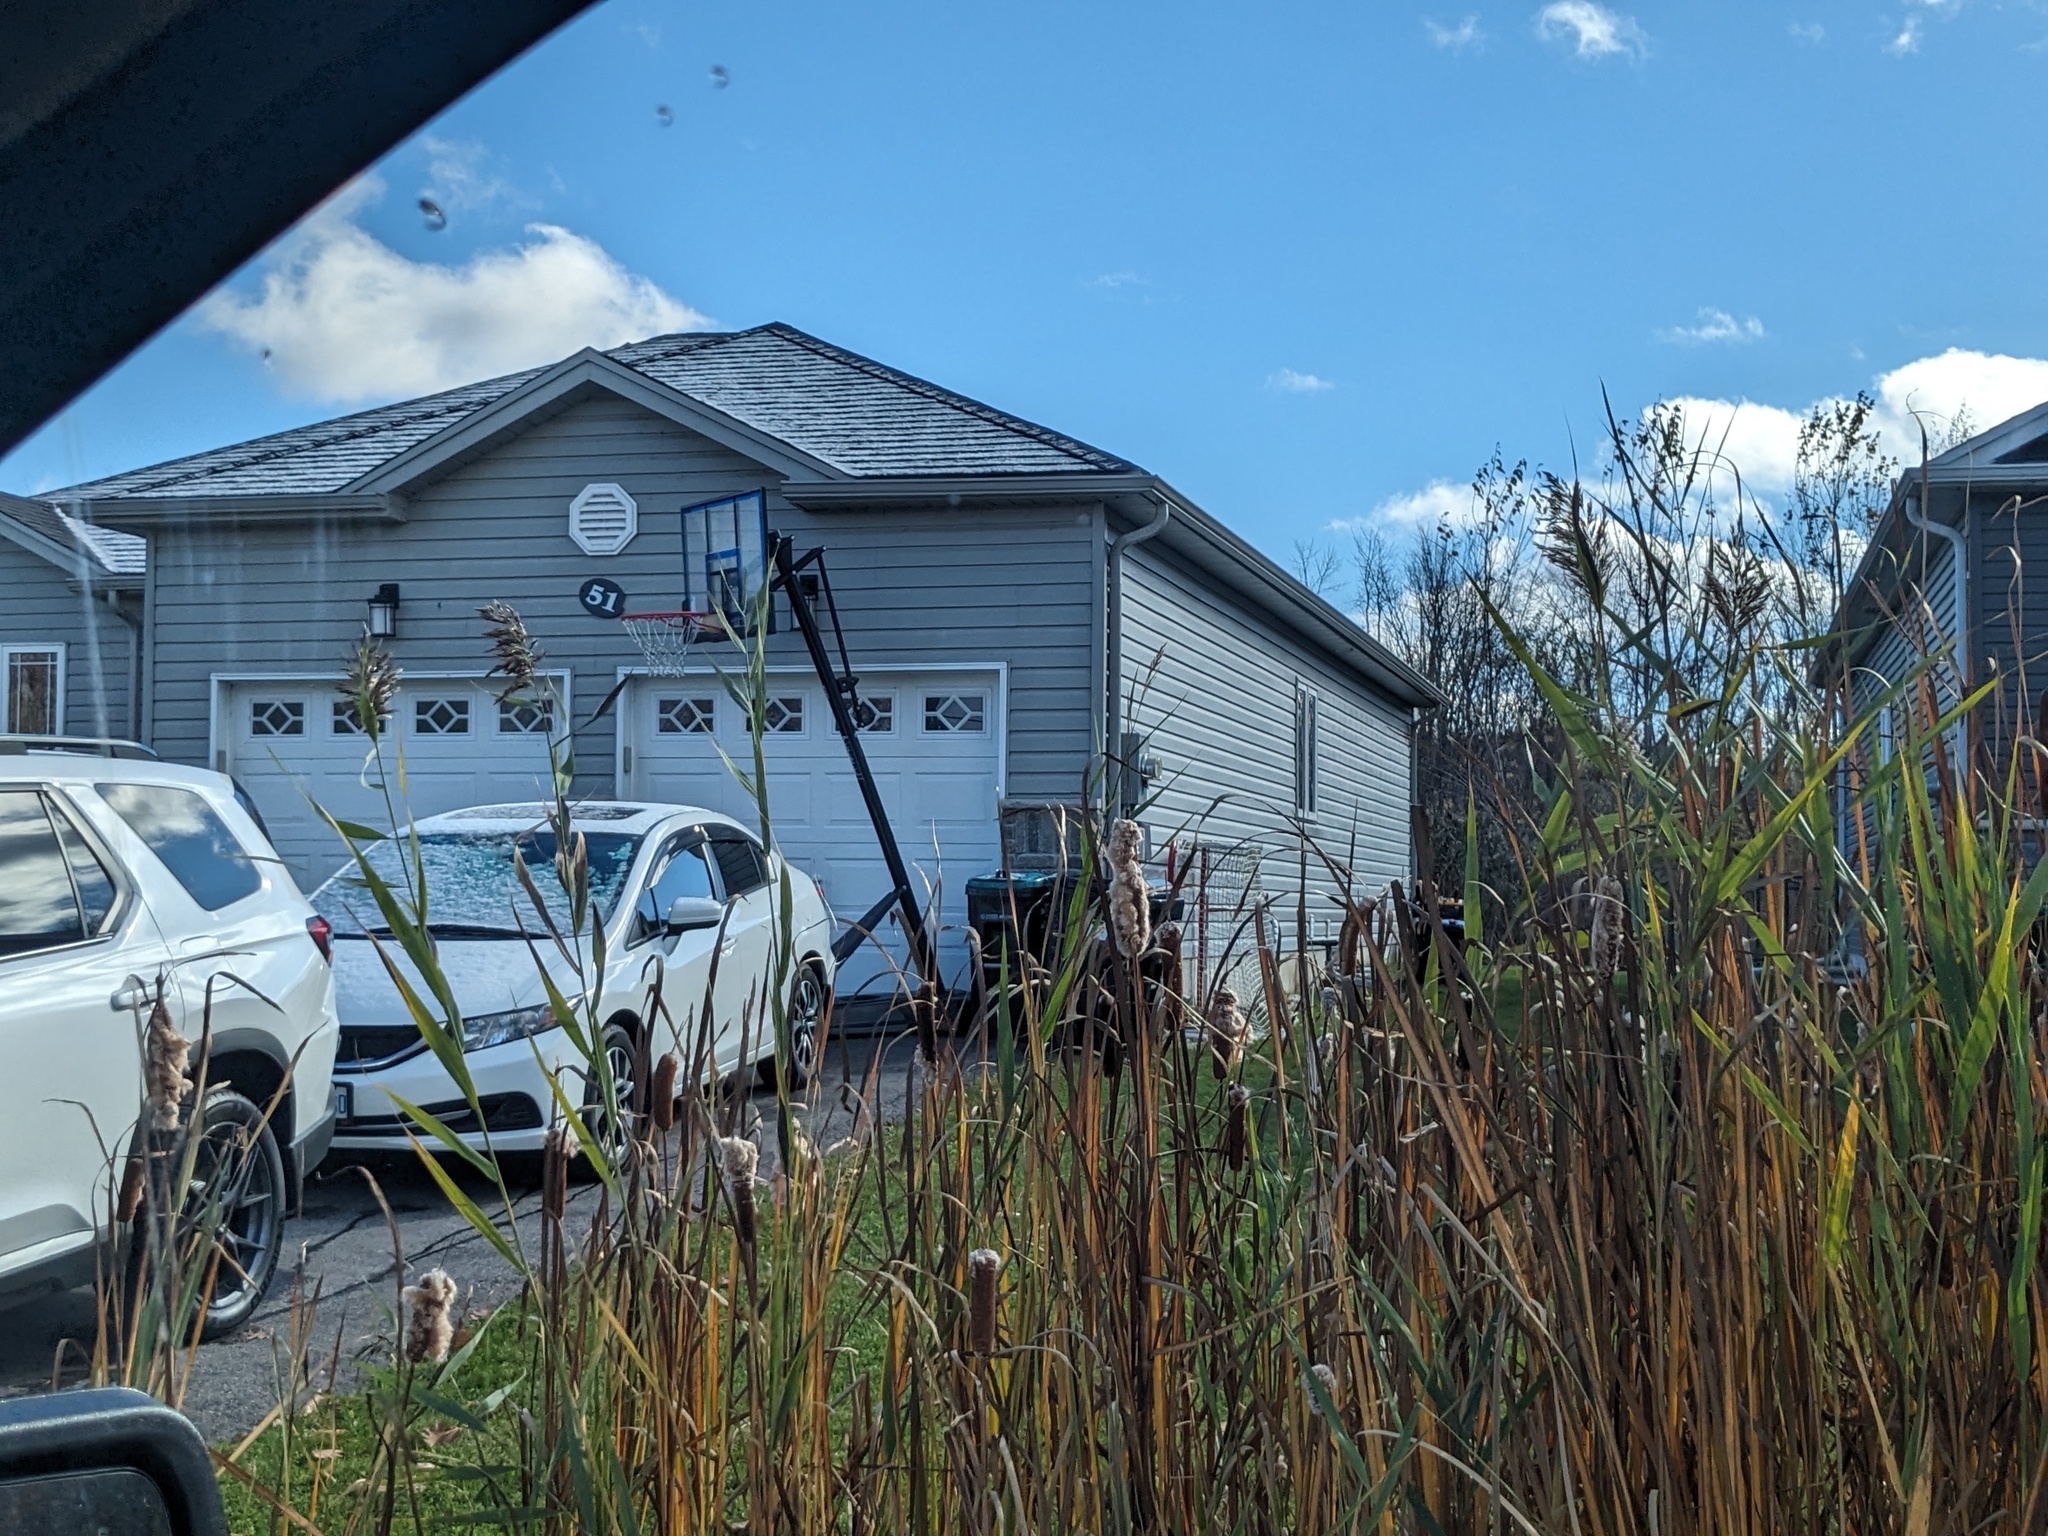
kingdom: Plantae
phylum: Tracheophyta
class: Liliopsida
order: Poales
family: Poaceae
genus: Phragmites
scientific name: Phragmites australis
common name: Common reed
